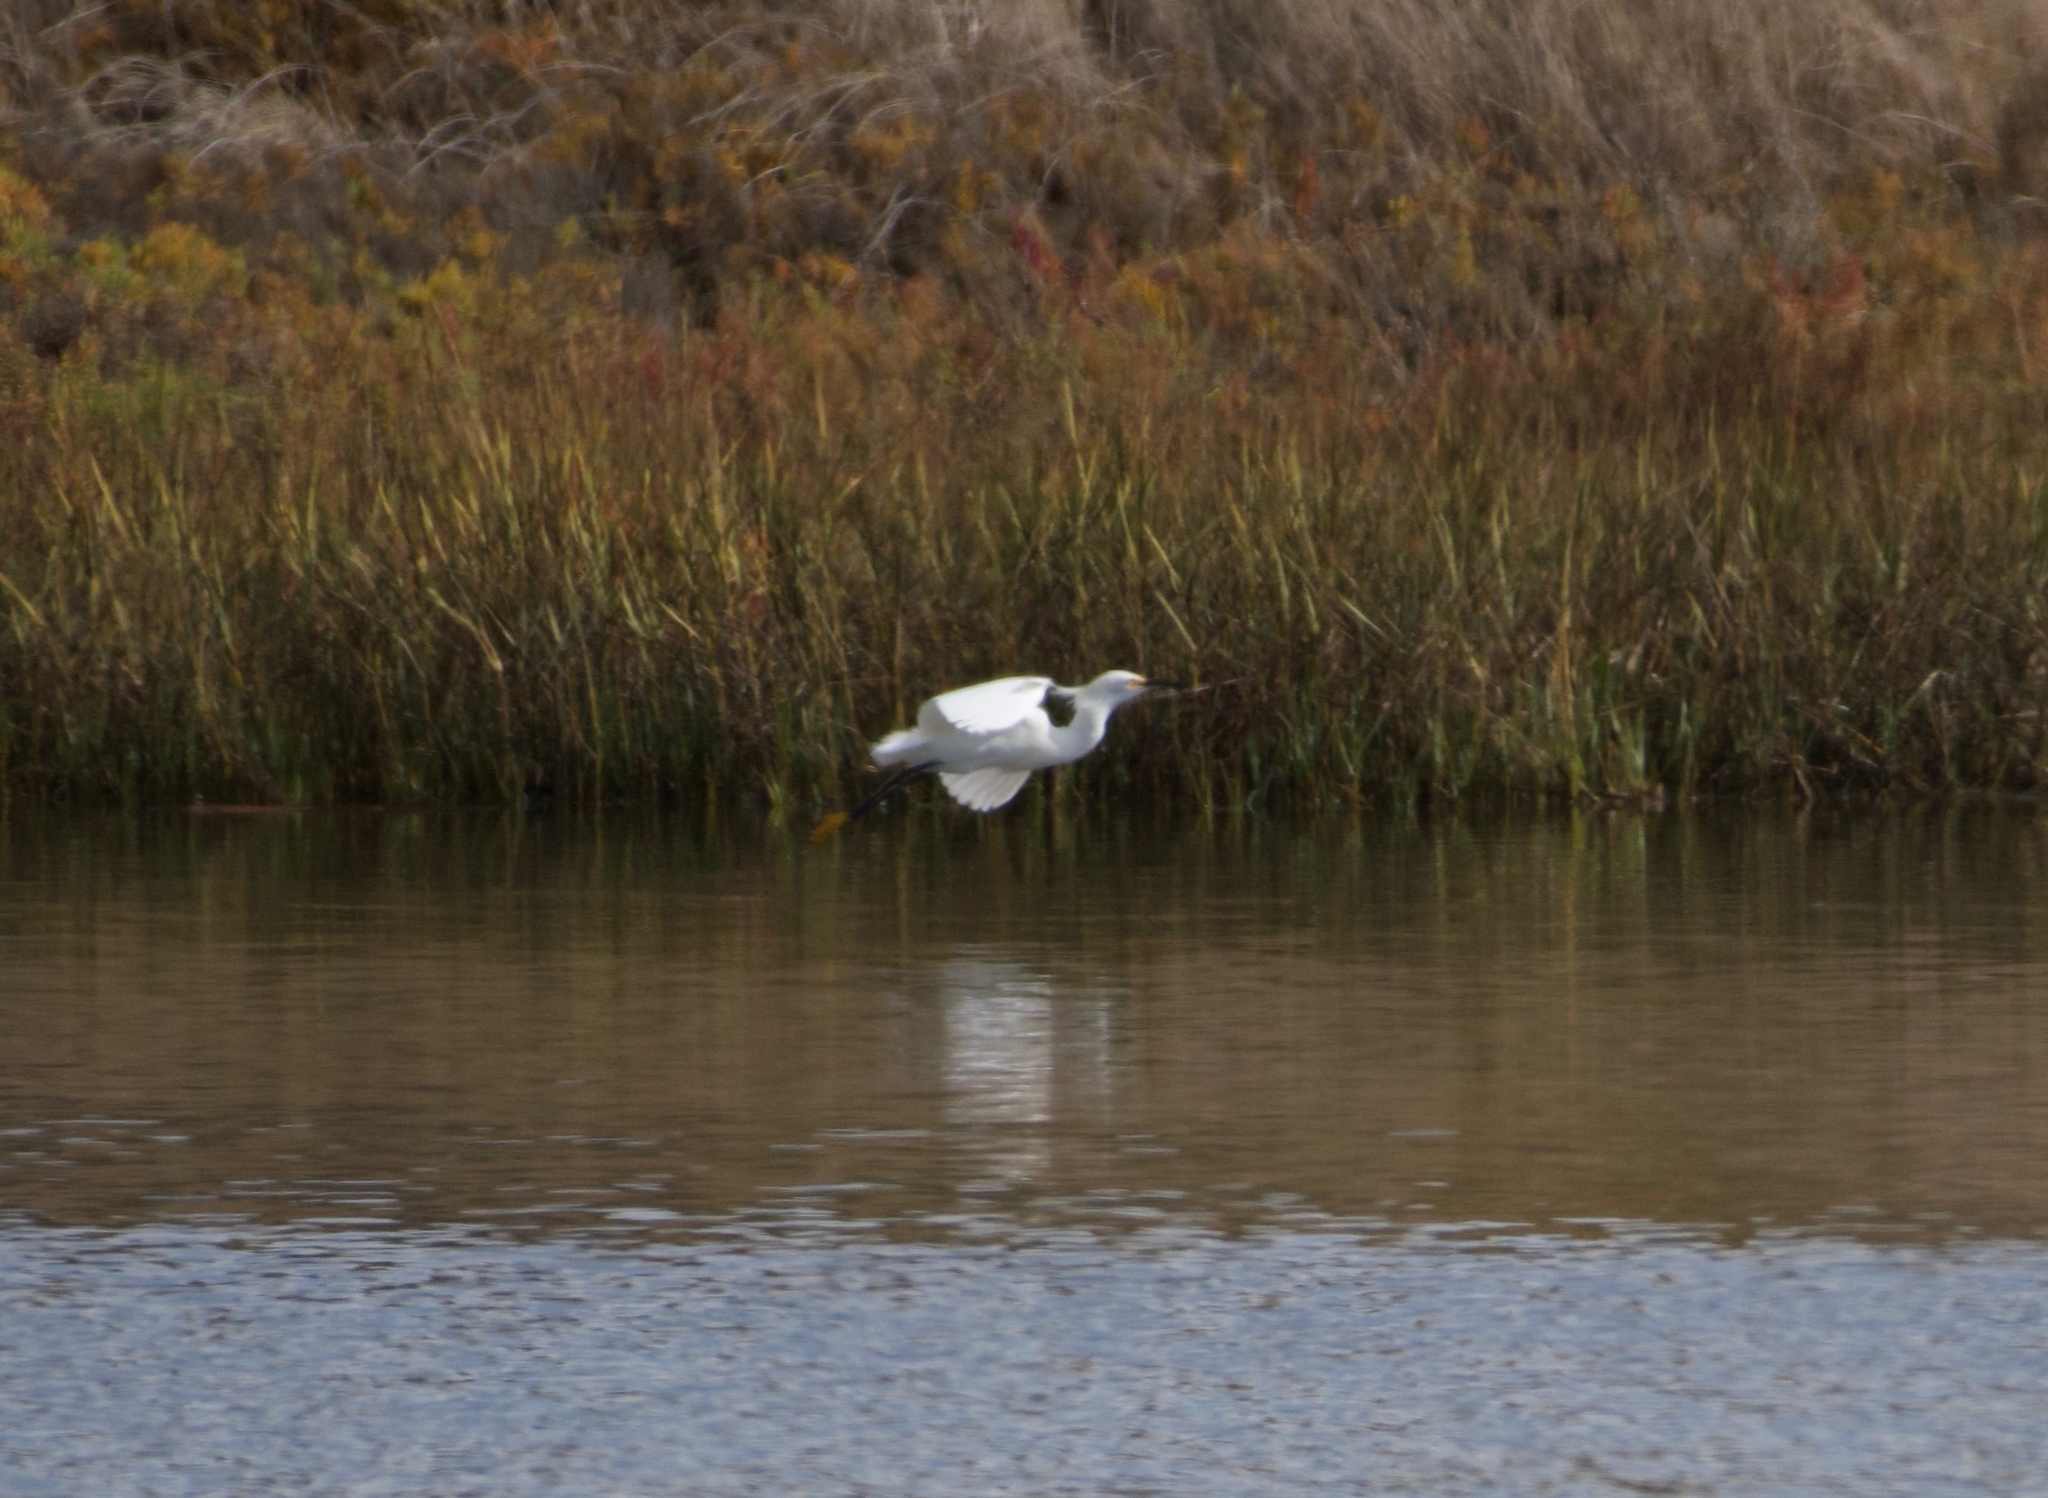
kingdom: Animalia
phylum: Chordata
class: Aves
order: Pelecaniformes
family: Ardeidae
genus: Egretta
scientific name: Egretta thula
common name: Snowy egret
